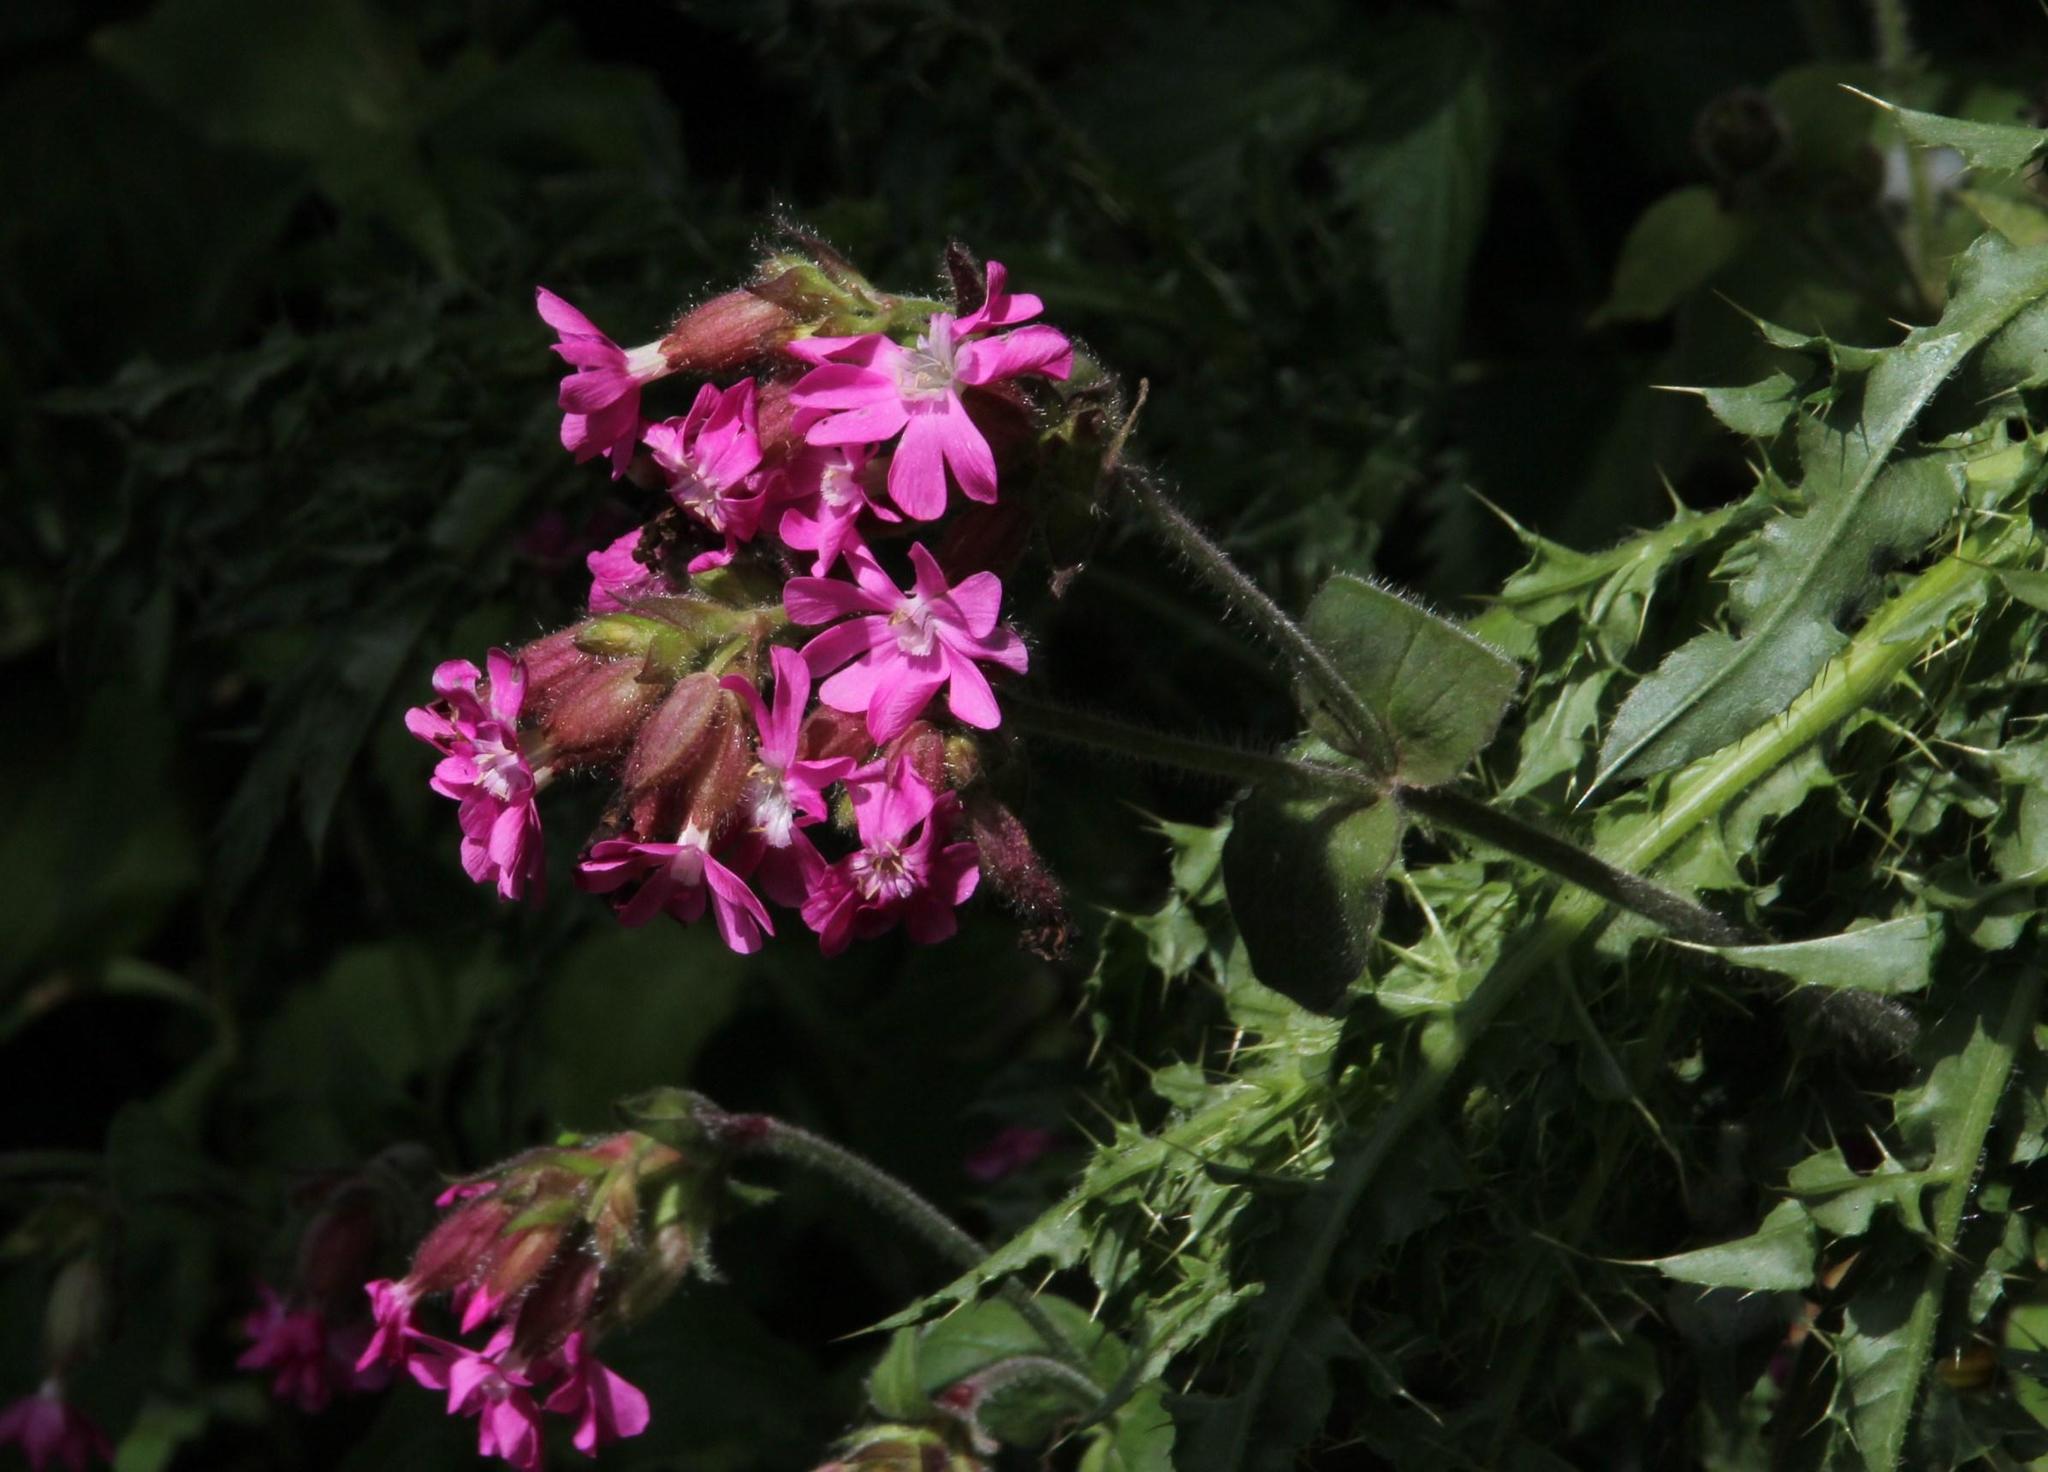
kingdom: Plantae
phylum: Tracheophyta
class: Magnoliopsida
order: Caryophyllales
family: Caryophyllaceae
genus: Silene
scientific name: Silene dioica
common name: Red campion
